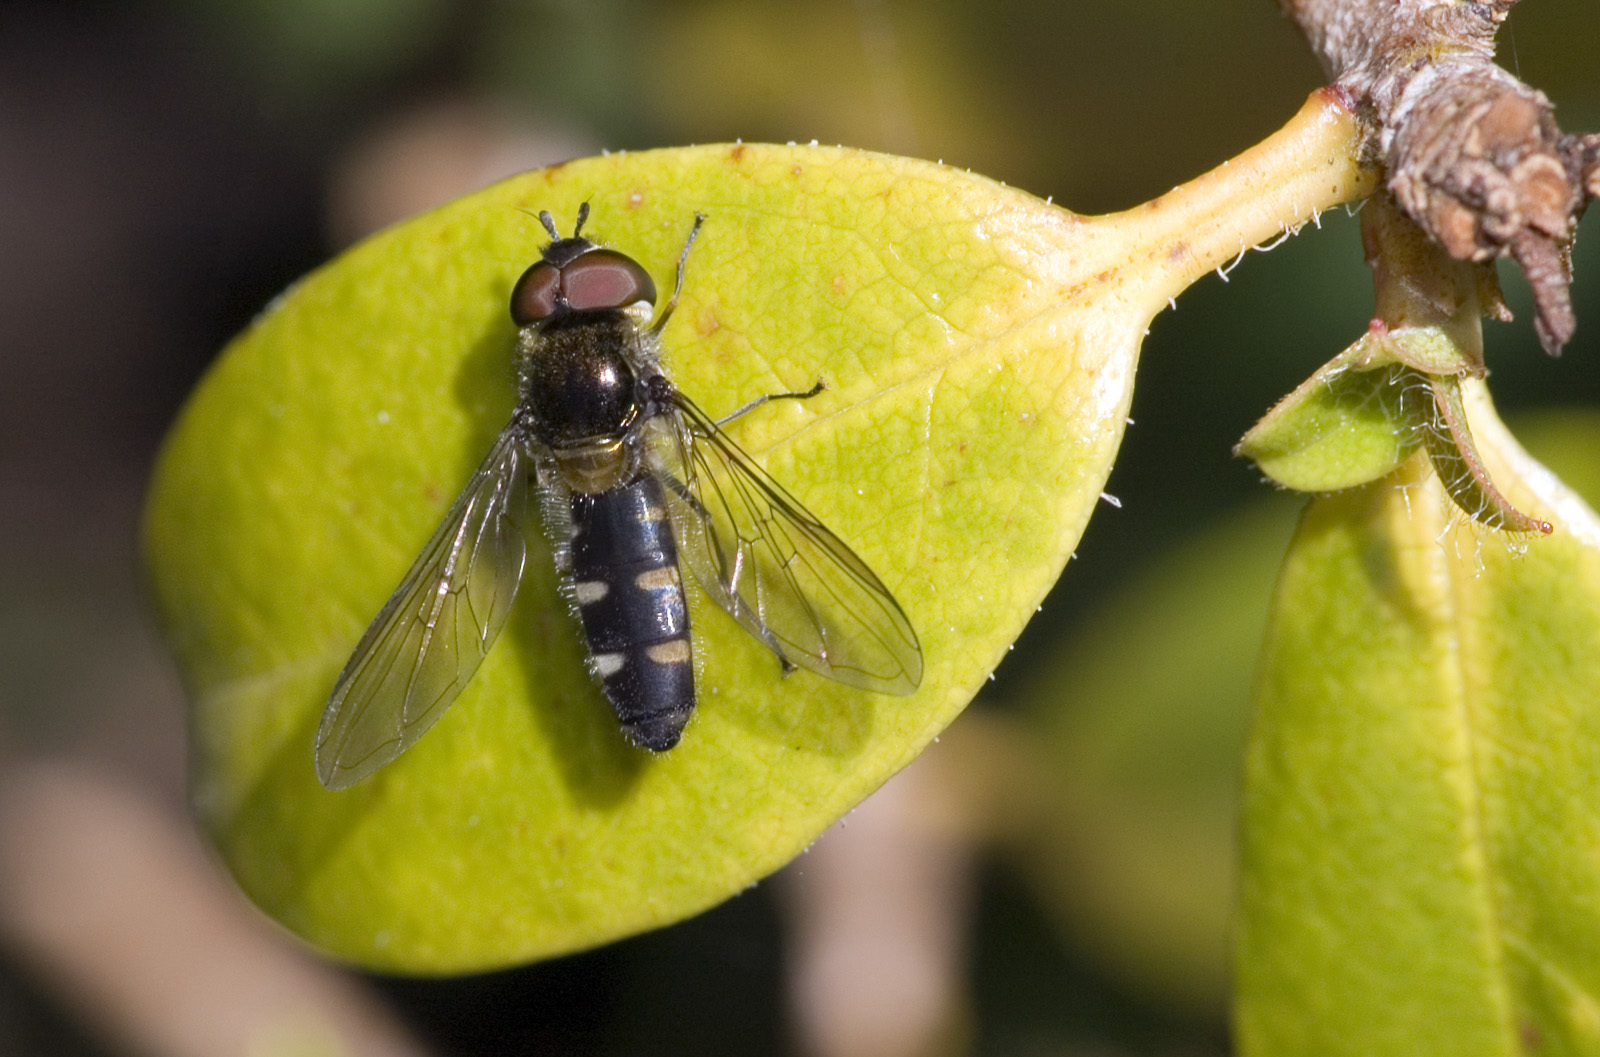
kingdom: Animalia
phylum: Arthropoda
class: Insecta
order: Diptera
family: Syrphidae
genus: Melangyna
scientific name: Melangyna novaezelandiae
